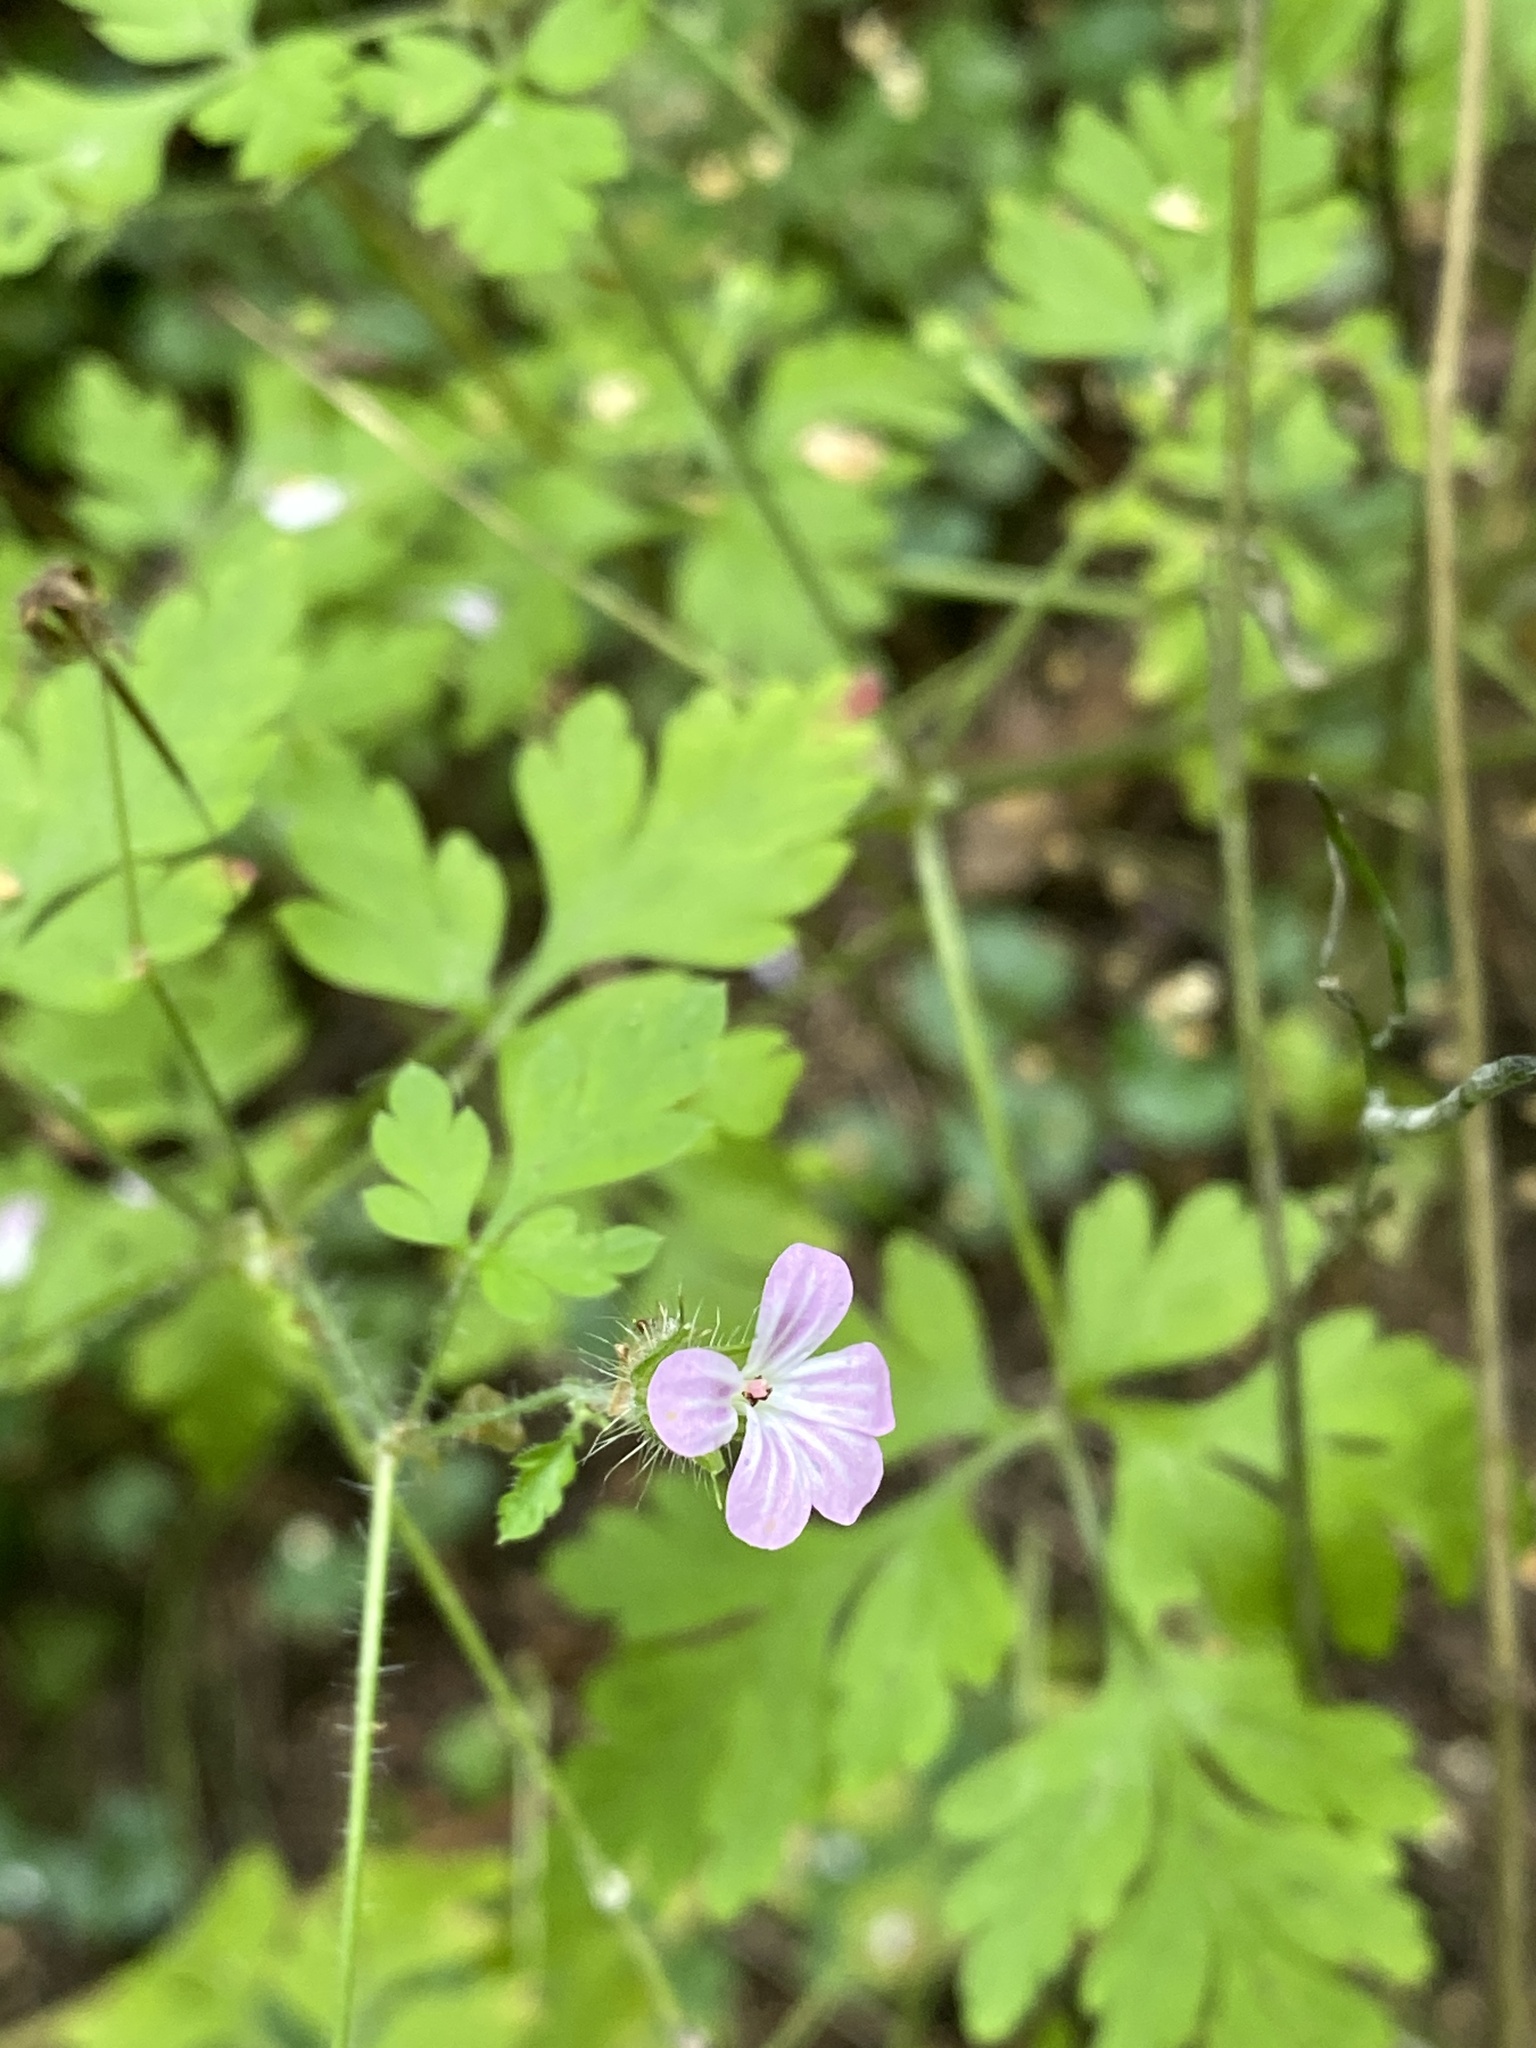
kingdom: Plantae
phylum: Tracheophyta
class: Magnoliopsida
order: Geraniales
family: Geraniaceae
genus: Geranium
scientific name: Geranium robertianum
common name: Herb-robert
